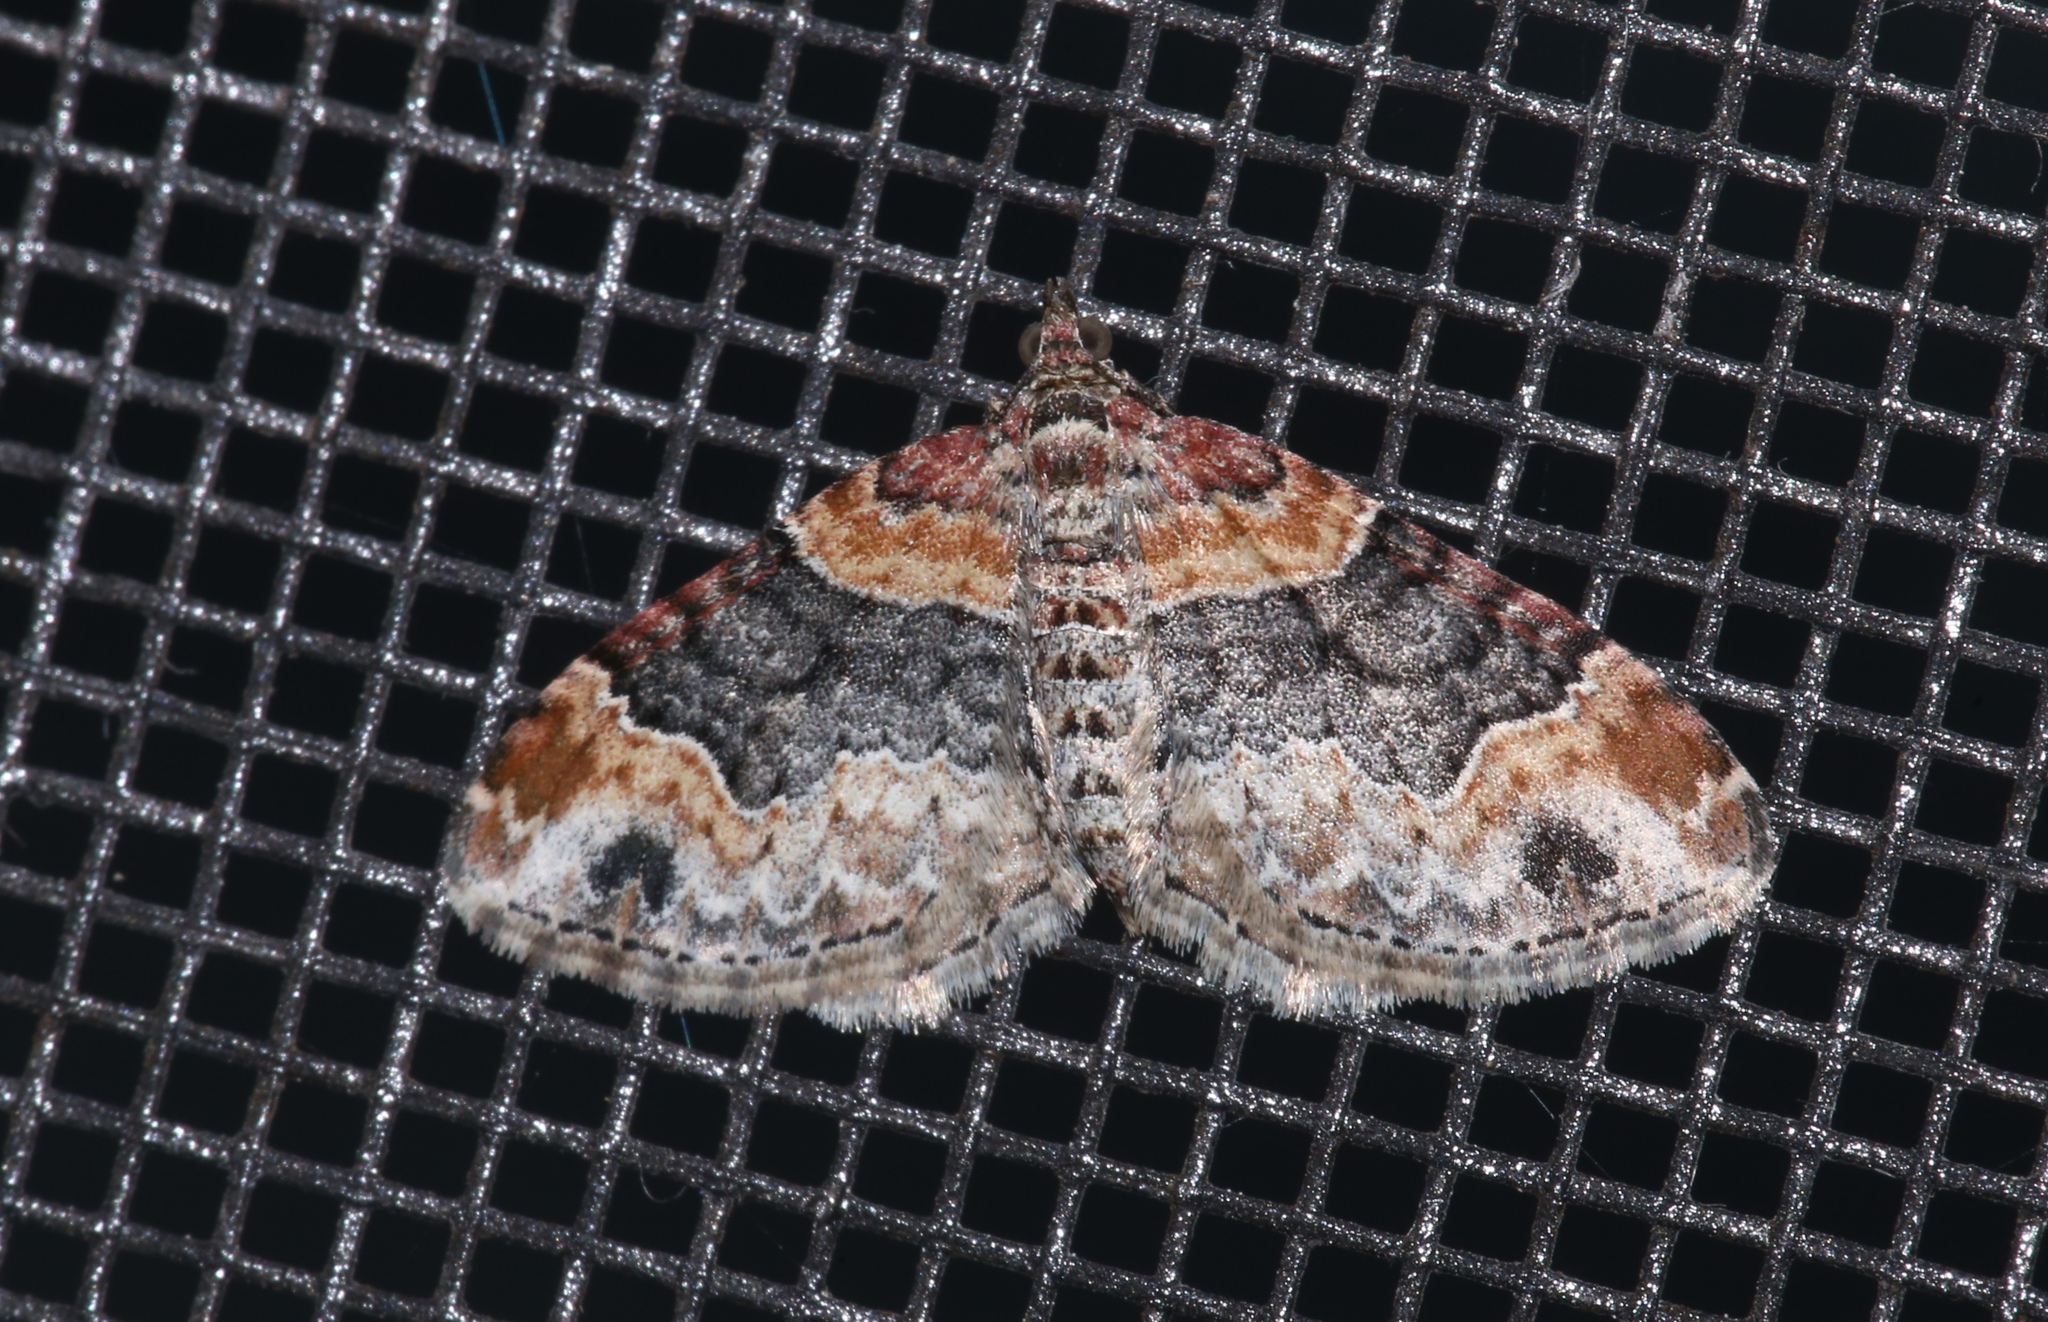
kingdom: Animalia
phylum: Arthropoda
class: Insecta
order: Lepidoptera
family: Geometridae
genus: Xanthorhoe
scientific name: Xanthorhoe ferrugata
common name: Dark-barred twin-spot carpet
